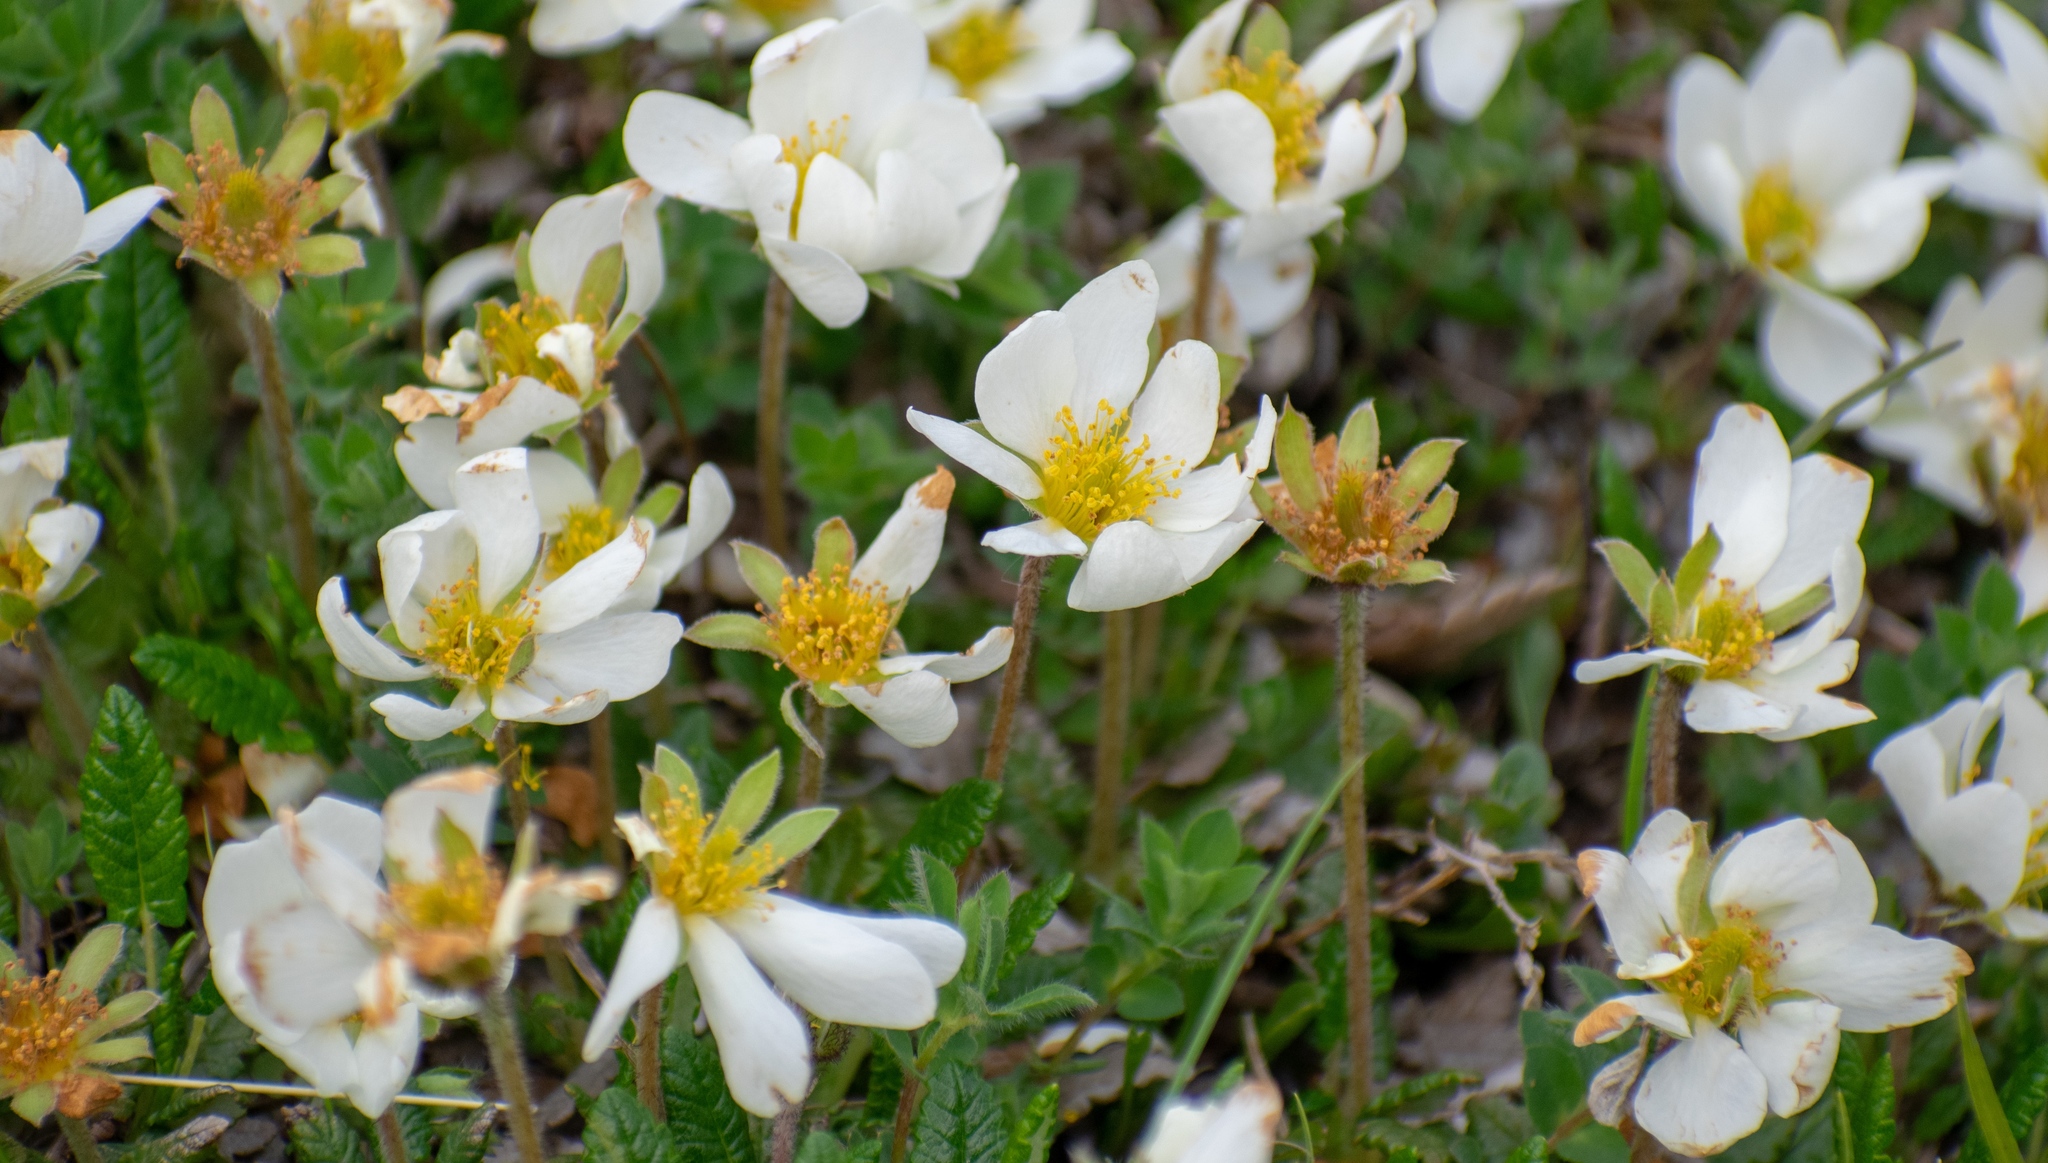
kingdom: Plantae
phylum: Tracheophyta
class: Magnoliopsida
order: Rosales
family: Rosaceae
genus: Dryas
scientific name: Dryas octopetala
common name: Eight-petal mountain-avens
